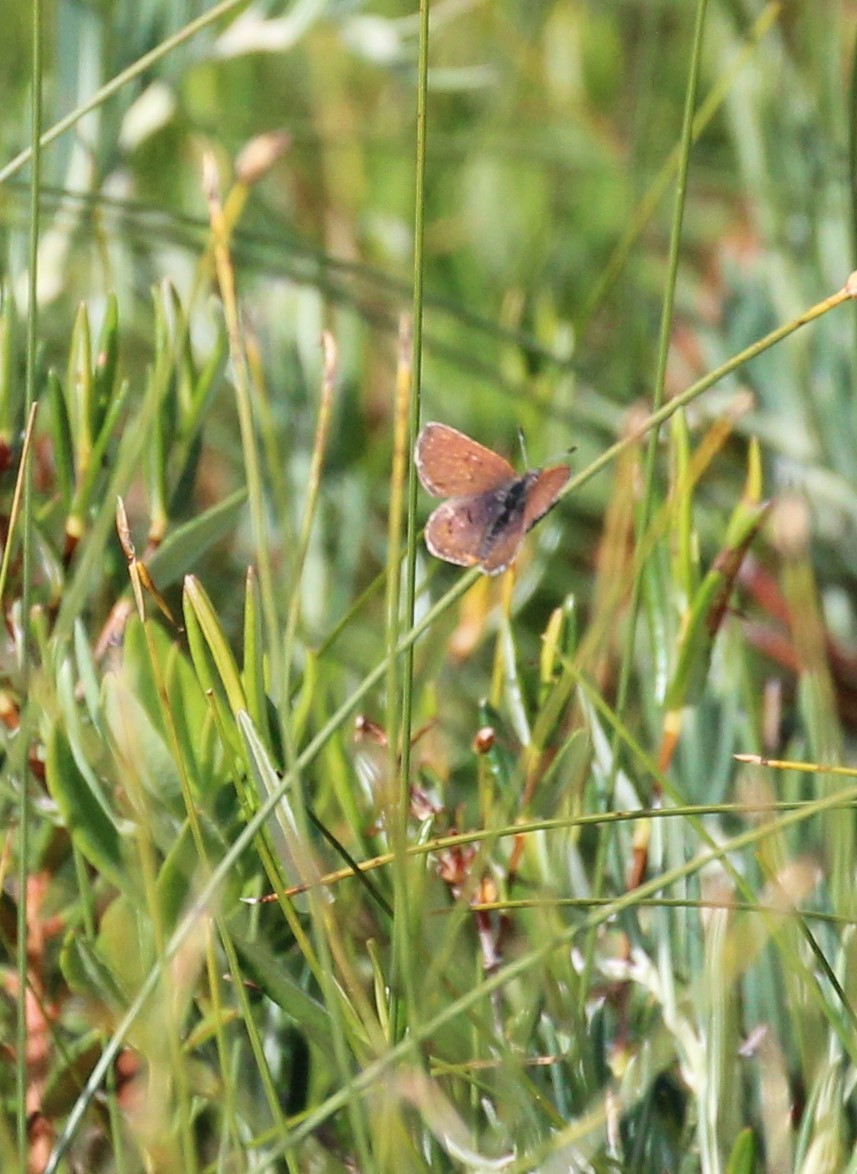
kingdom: Animalia
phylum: Arthropoda
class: Insecta
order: Lepidoptera
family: Lycaenidae
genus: Tharsalea
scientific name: Tharsalea epixanthe
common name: Bog copper
